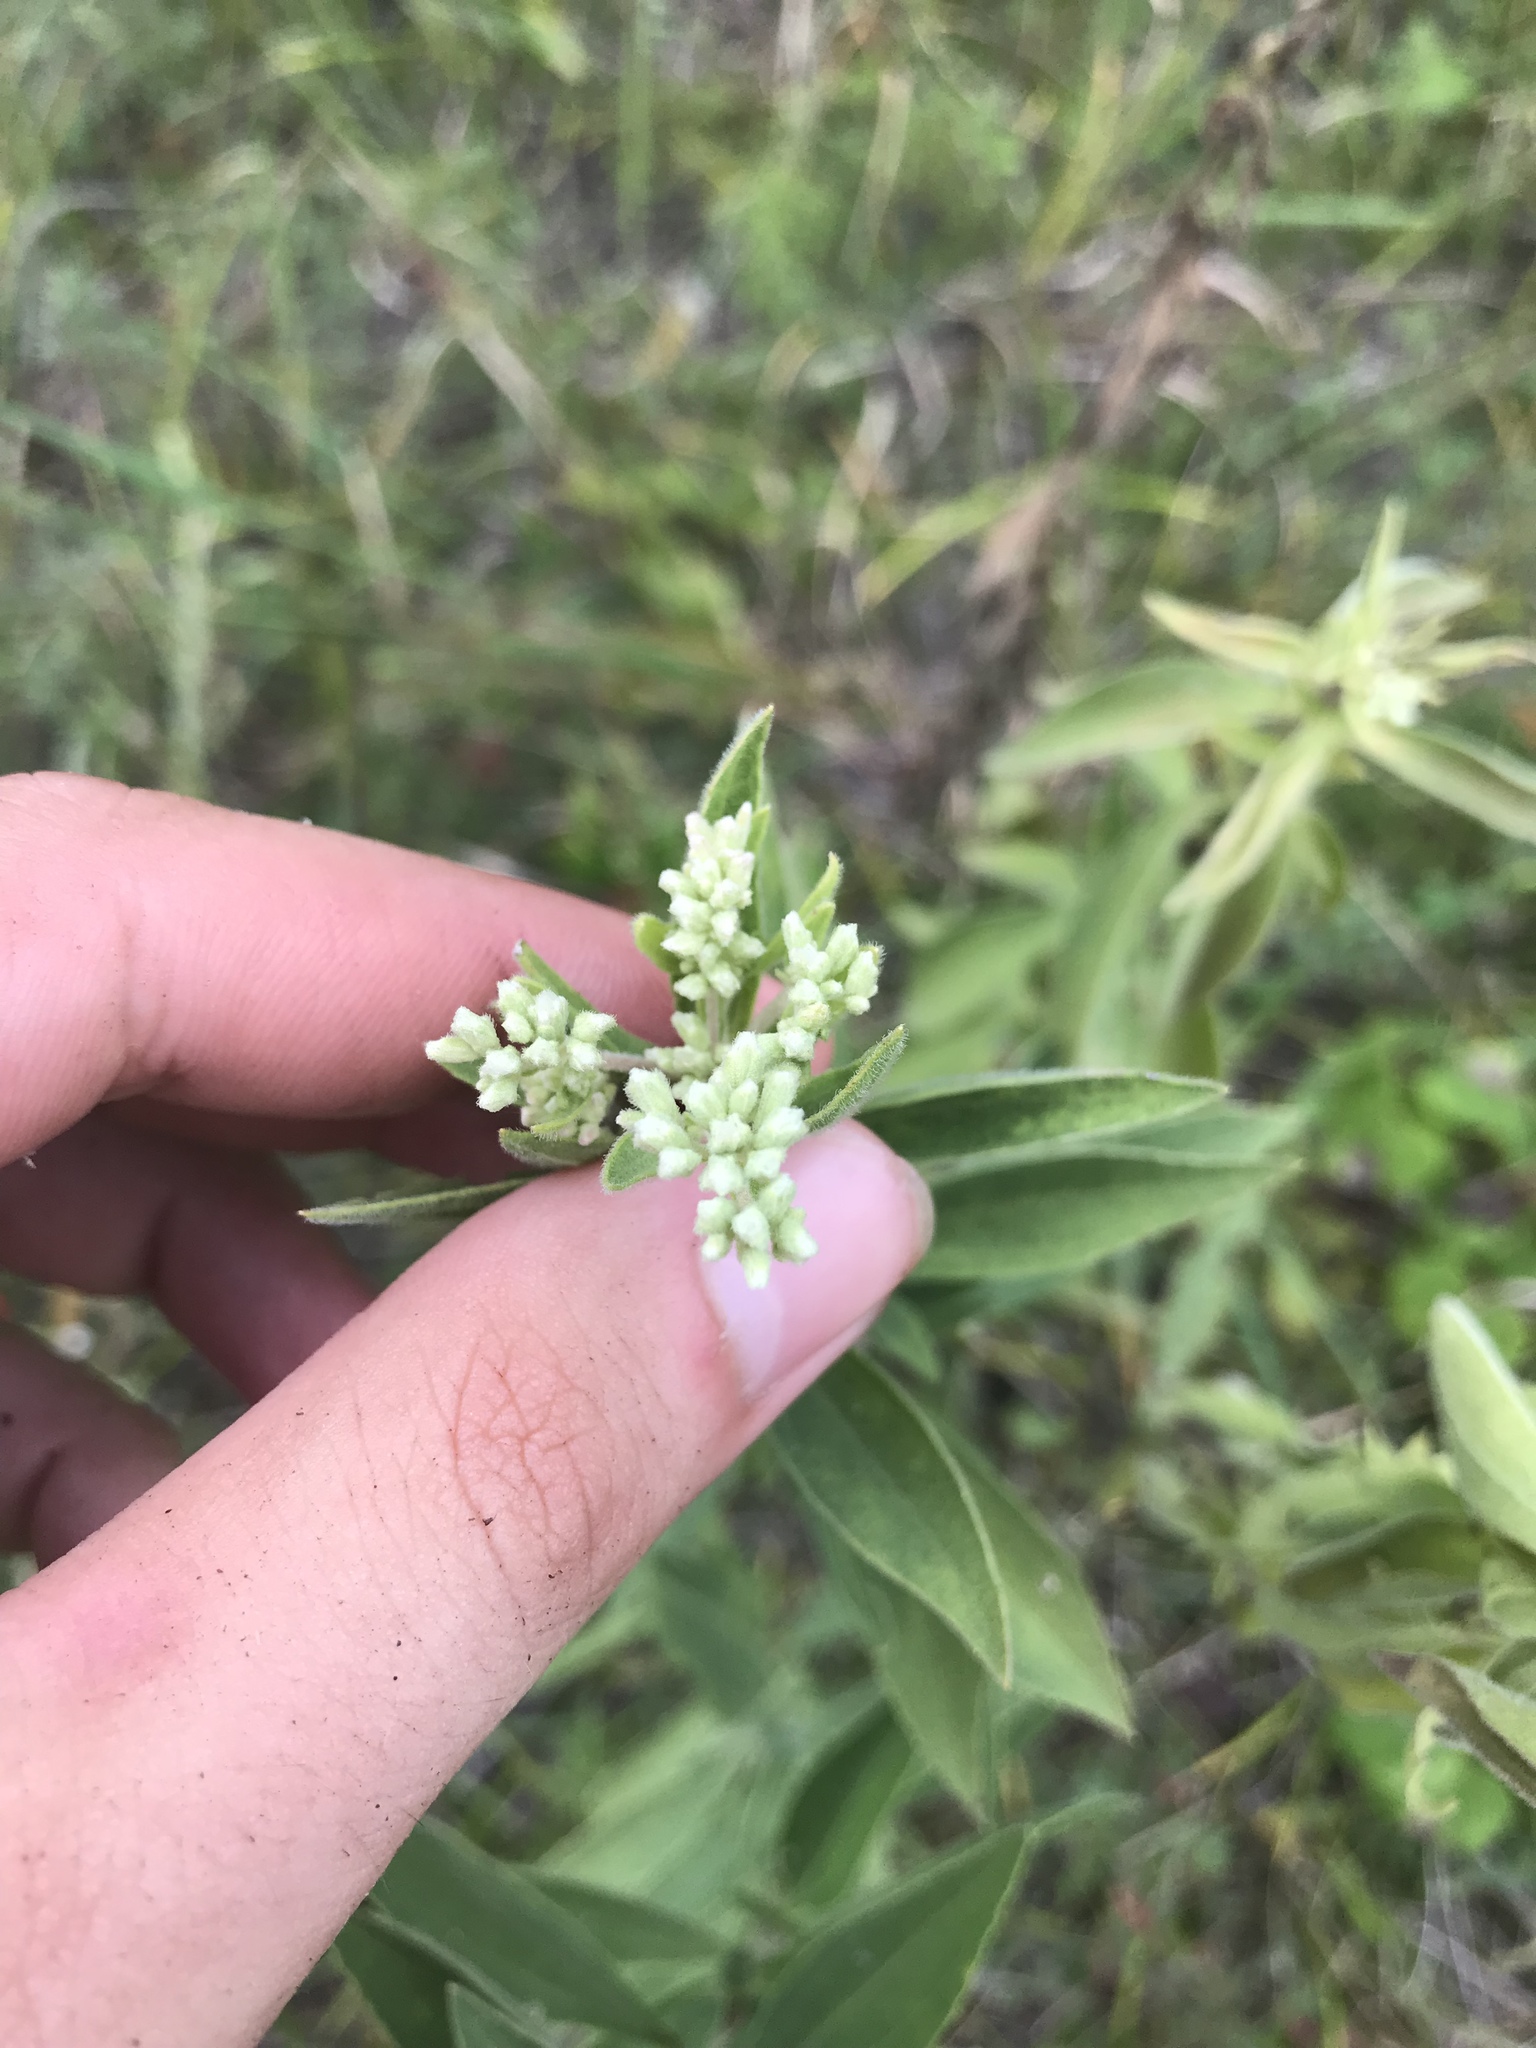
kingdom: Plantae
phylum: Tracheophyta
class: Magnoliopsida
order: Asterales
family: Asteraceae
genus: Eupatorium
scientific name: Eupatorium altissimum
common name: Tall thoroughwort
